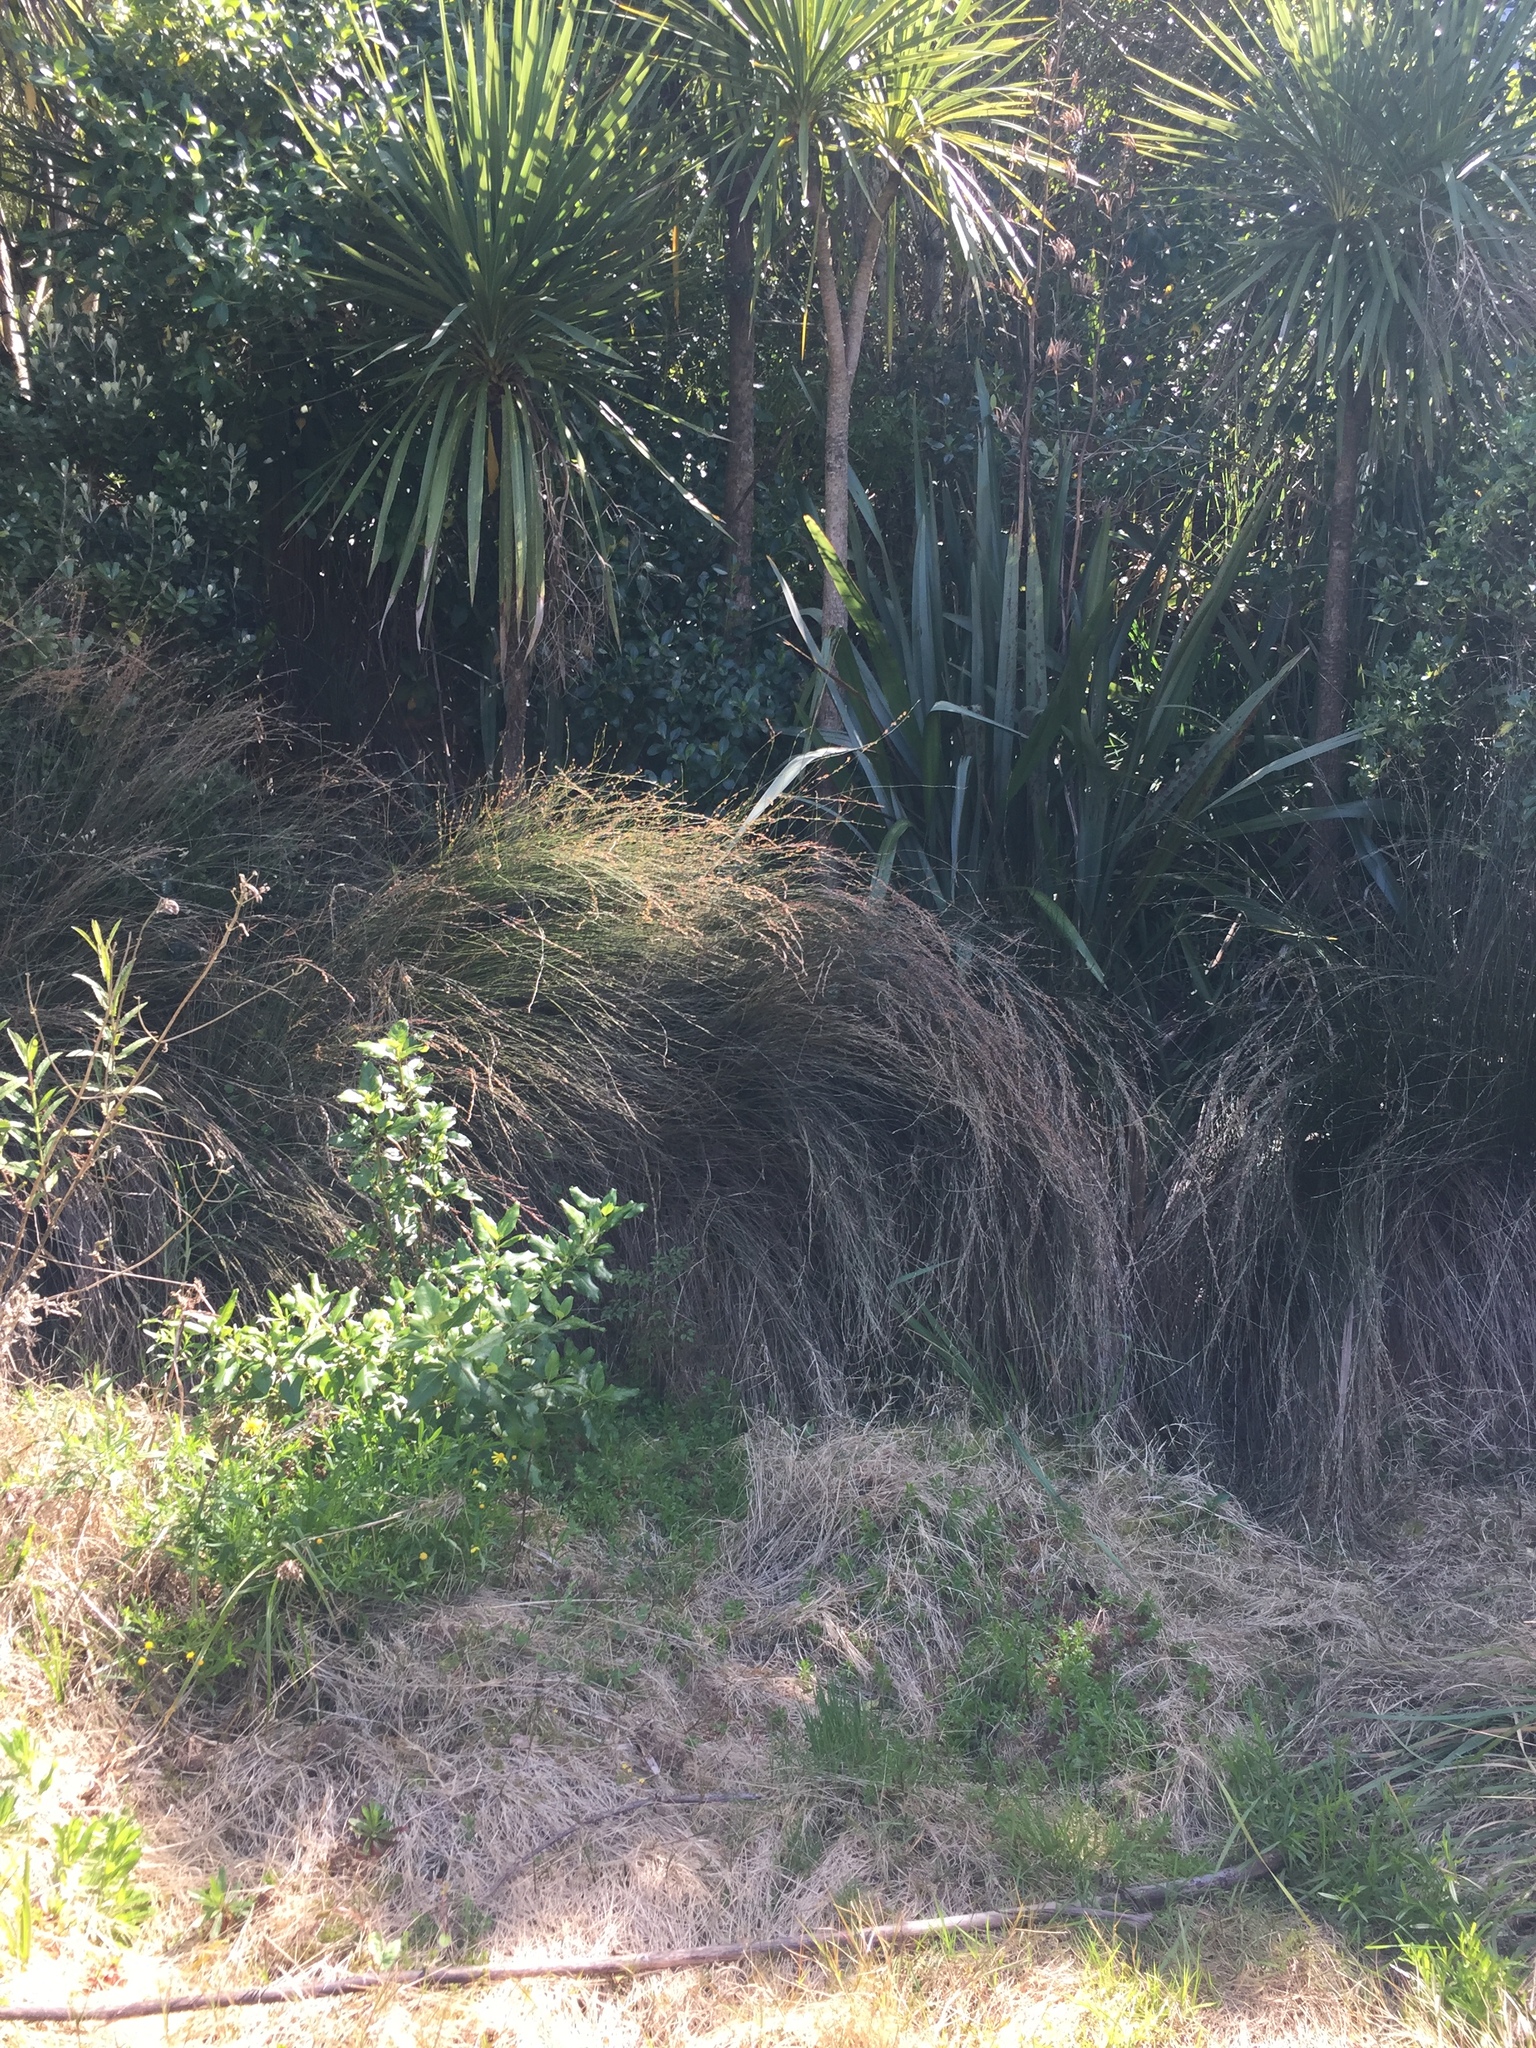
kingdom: Animalia
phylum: Arthropoda
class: Insecta
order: Hemiptera
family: Cicadellidae
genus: Paracephaleus
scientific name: Paracephaleus hudsoni
